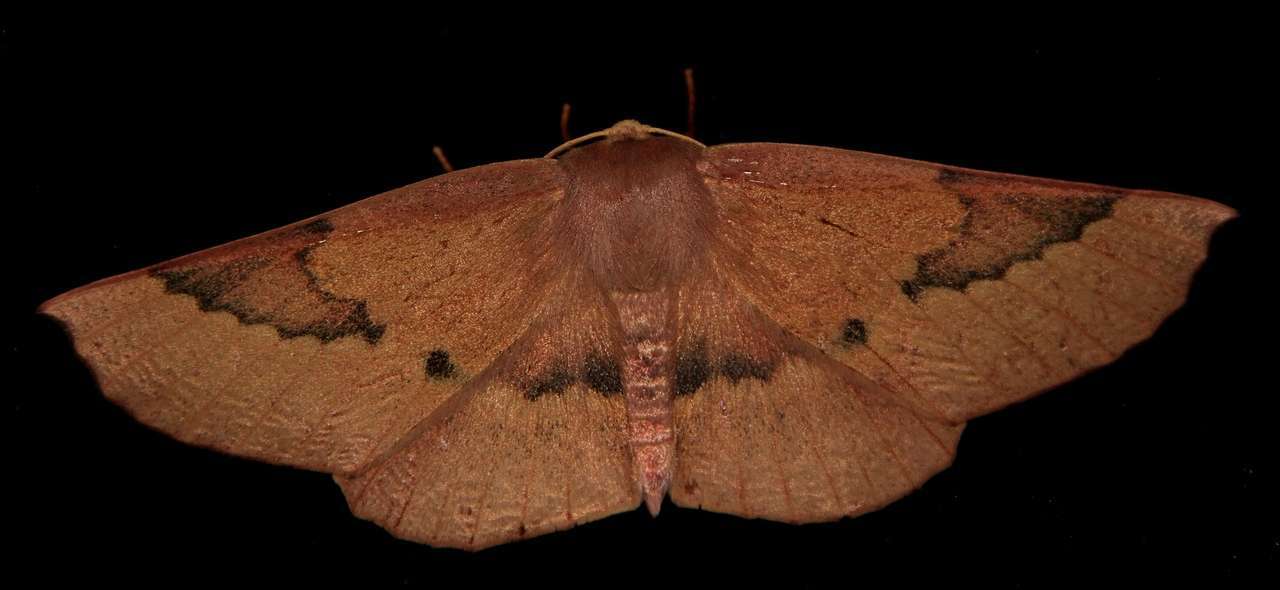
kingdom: Animalia
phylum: Arthropoda
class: Insecta
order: Lepidoptera
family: Geometridae
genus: Monoctenia
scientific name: Monoctenia falernaria
